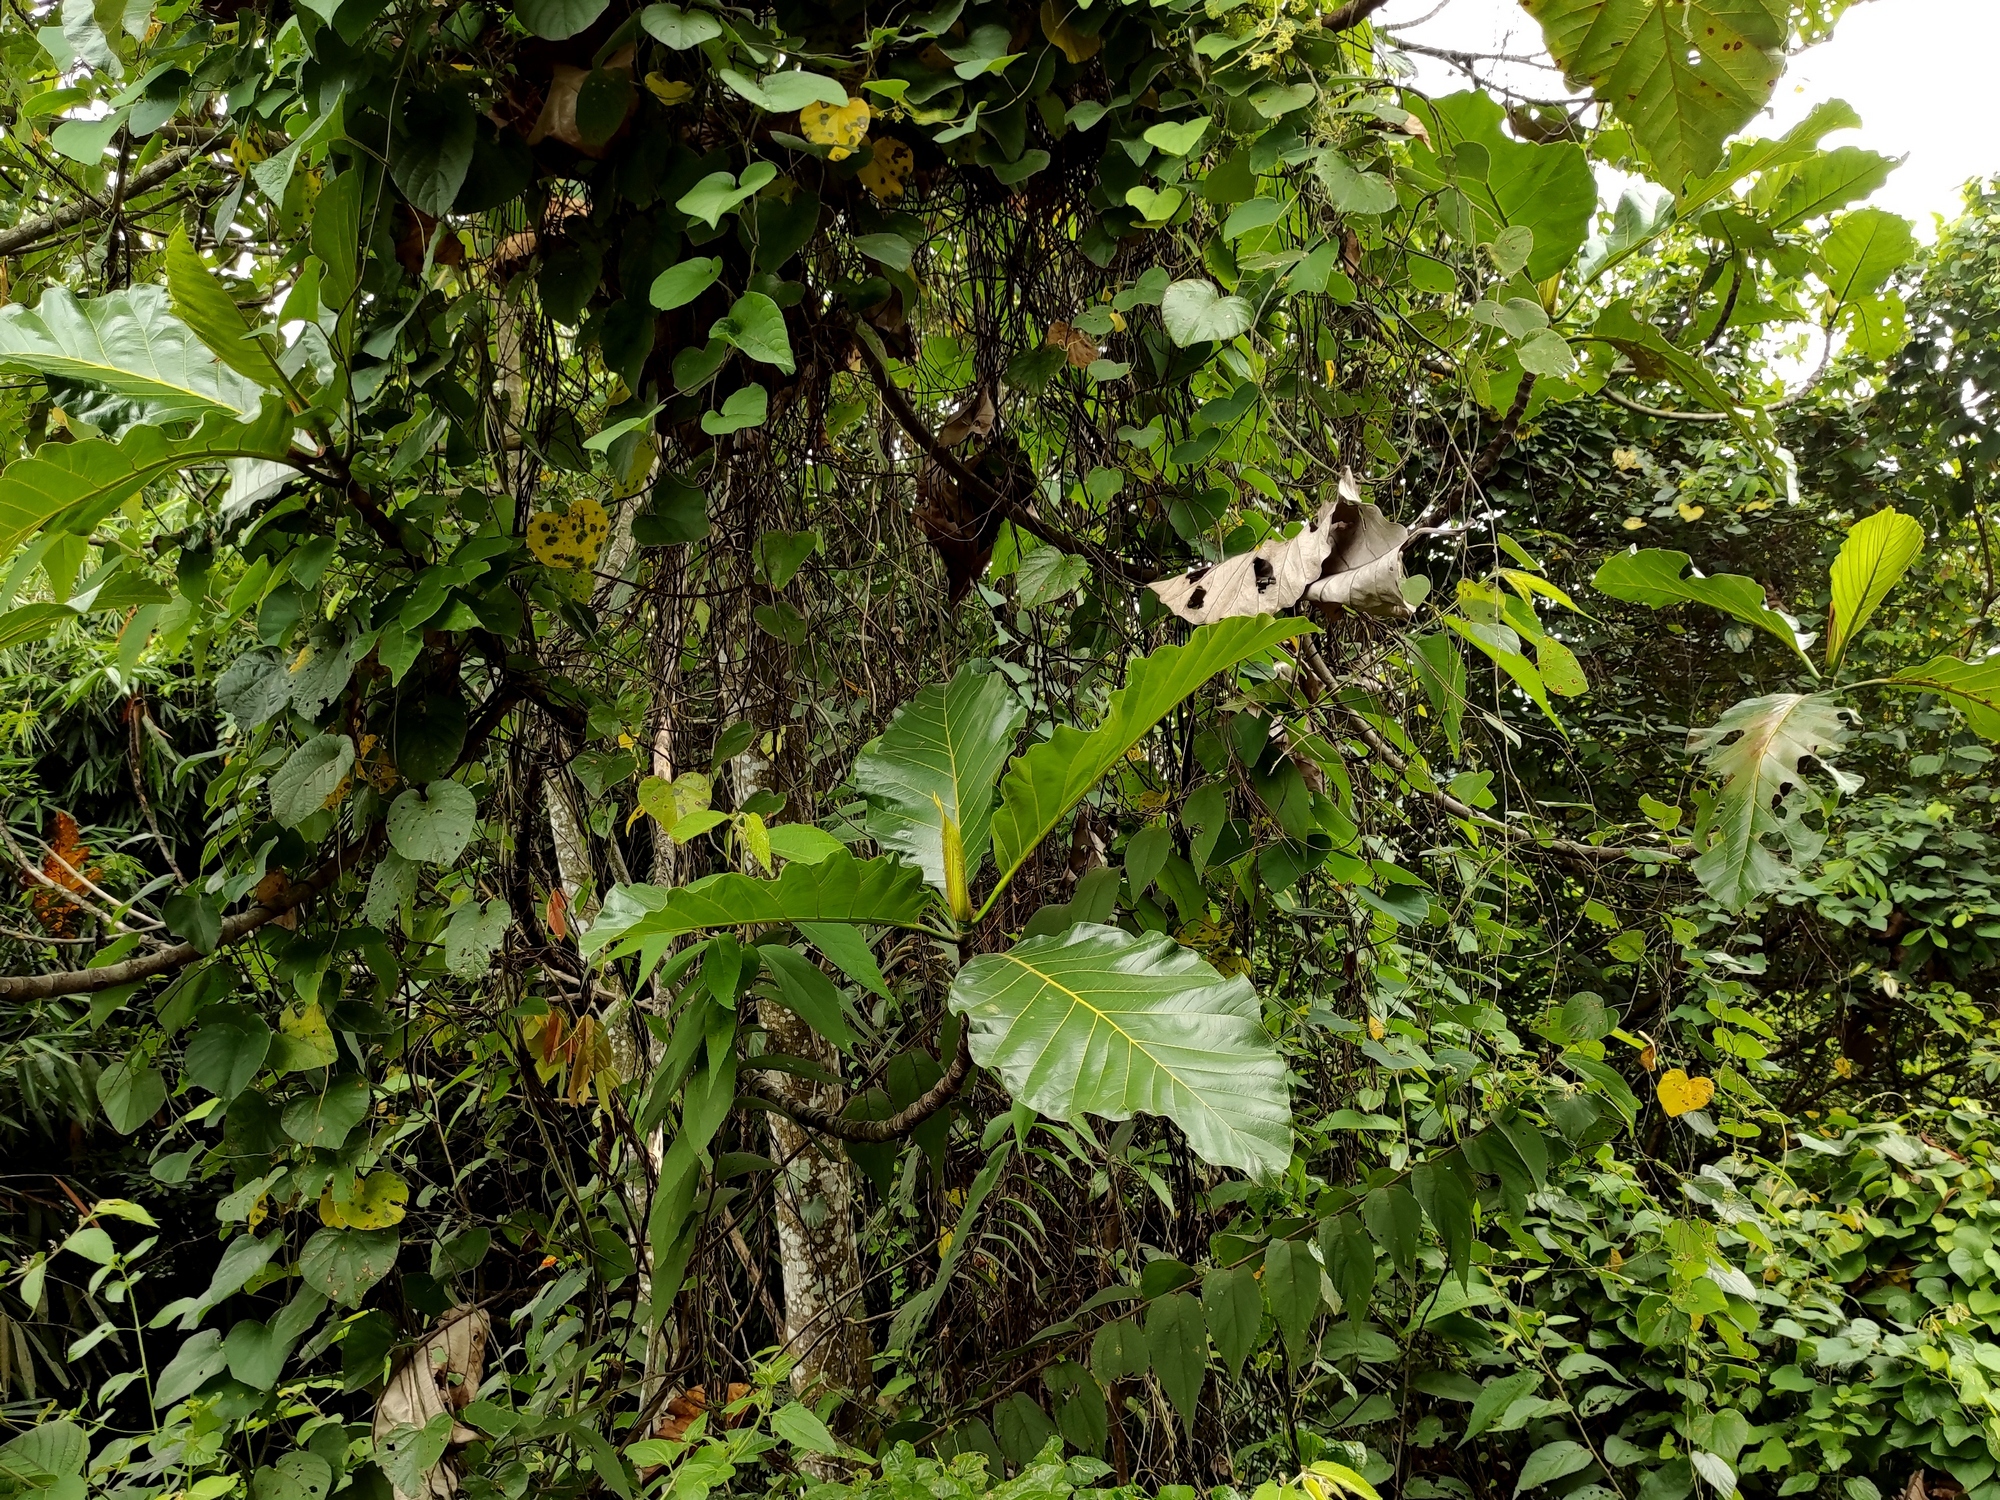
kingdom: Plantae
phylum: Tracheophyta
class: Magnoliopsida
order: Rosales
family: Moraceae
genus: Artocarpus
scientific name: Artocarpus elasticus
